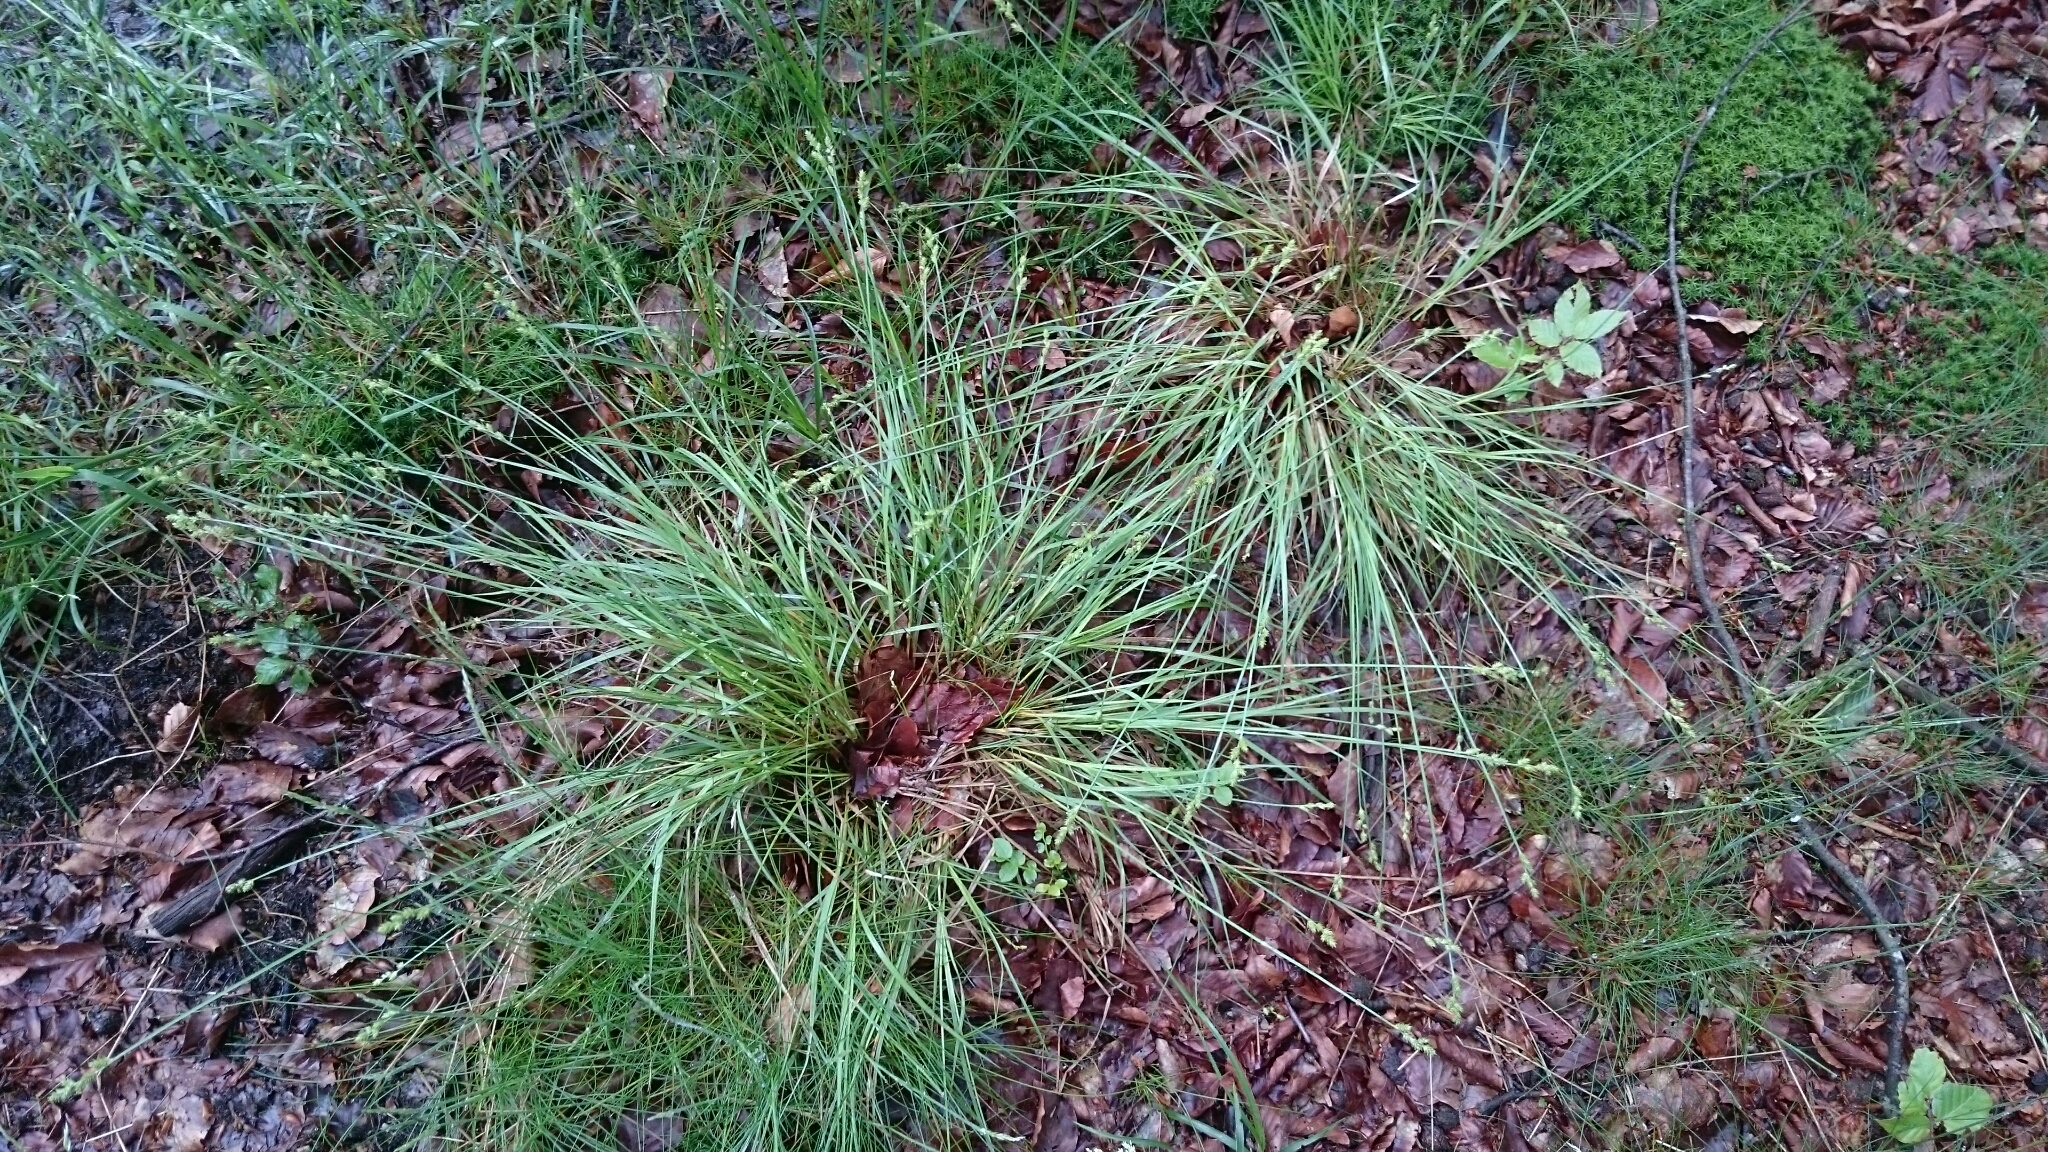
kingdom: Plantae
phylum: Tracheophyta
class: Liliopsida
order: Poales
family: Cyperaceae
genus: Carex
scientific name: Carex canescens
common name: White sedge
